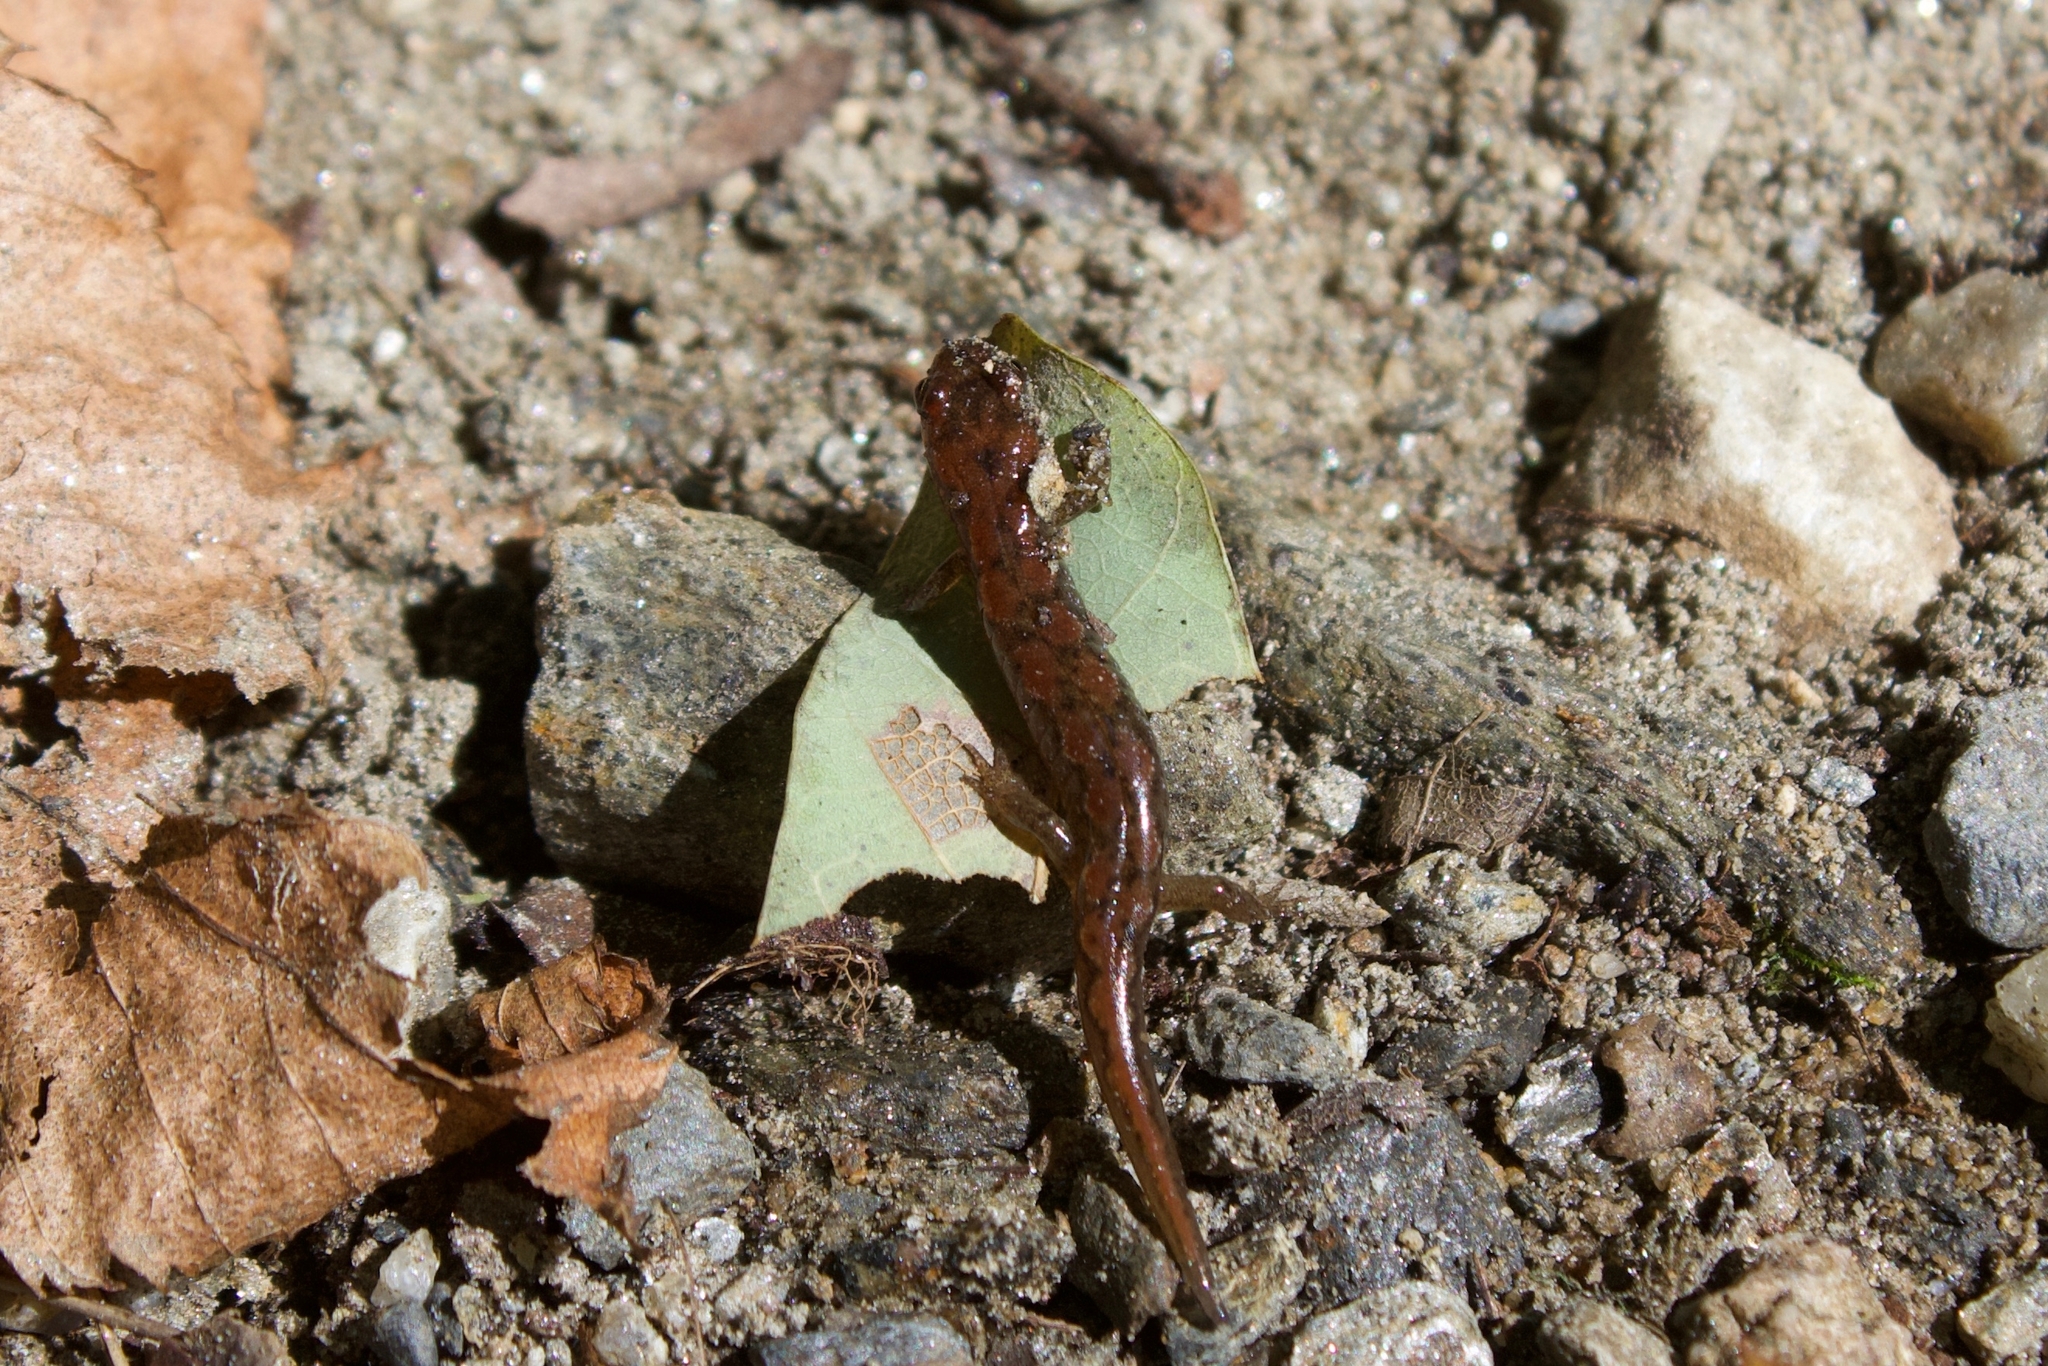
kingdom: Animalia
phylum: Chordata
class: Amphibia
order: Caudata
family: Plethodontidae
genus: Desmognathus
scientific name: Desmognathus
